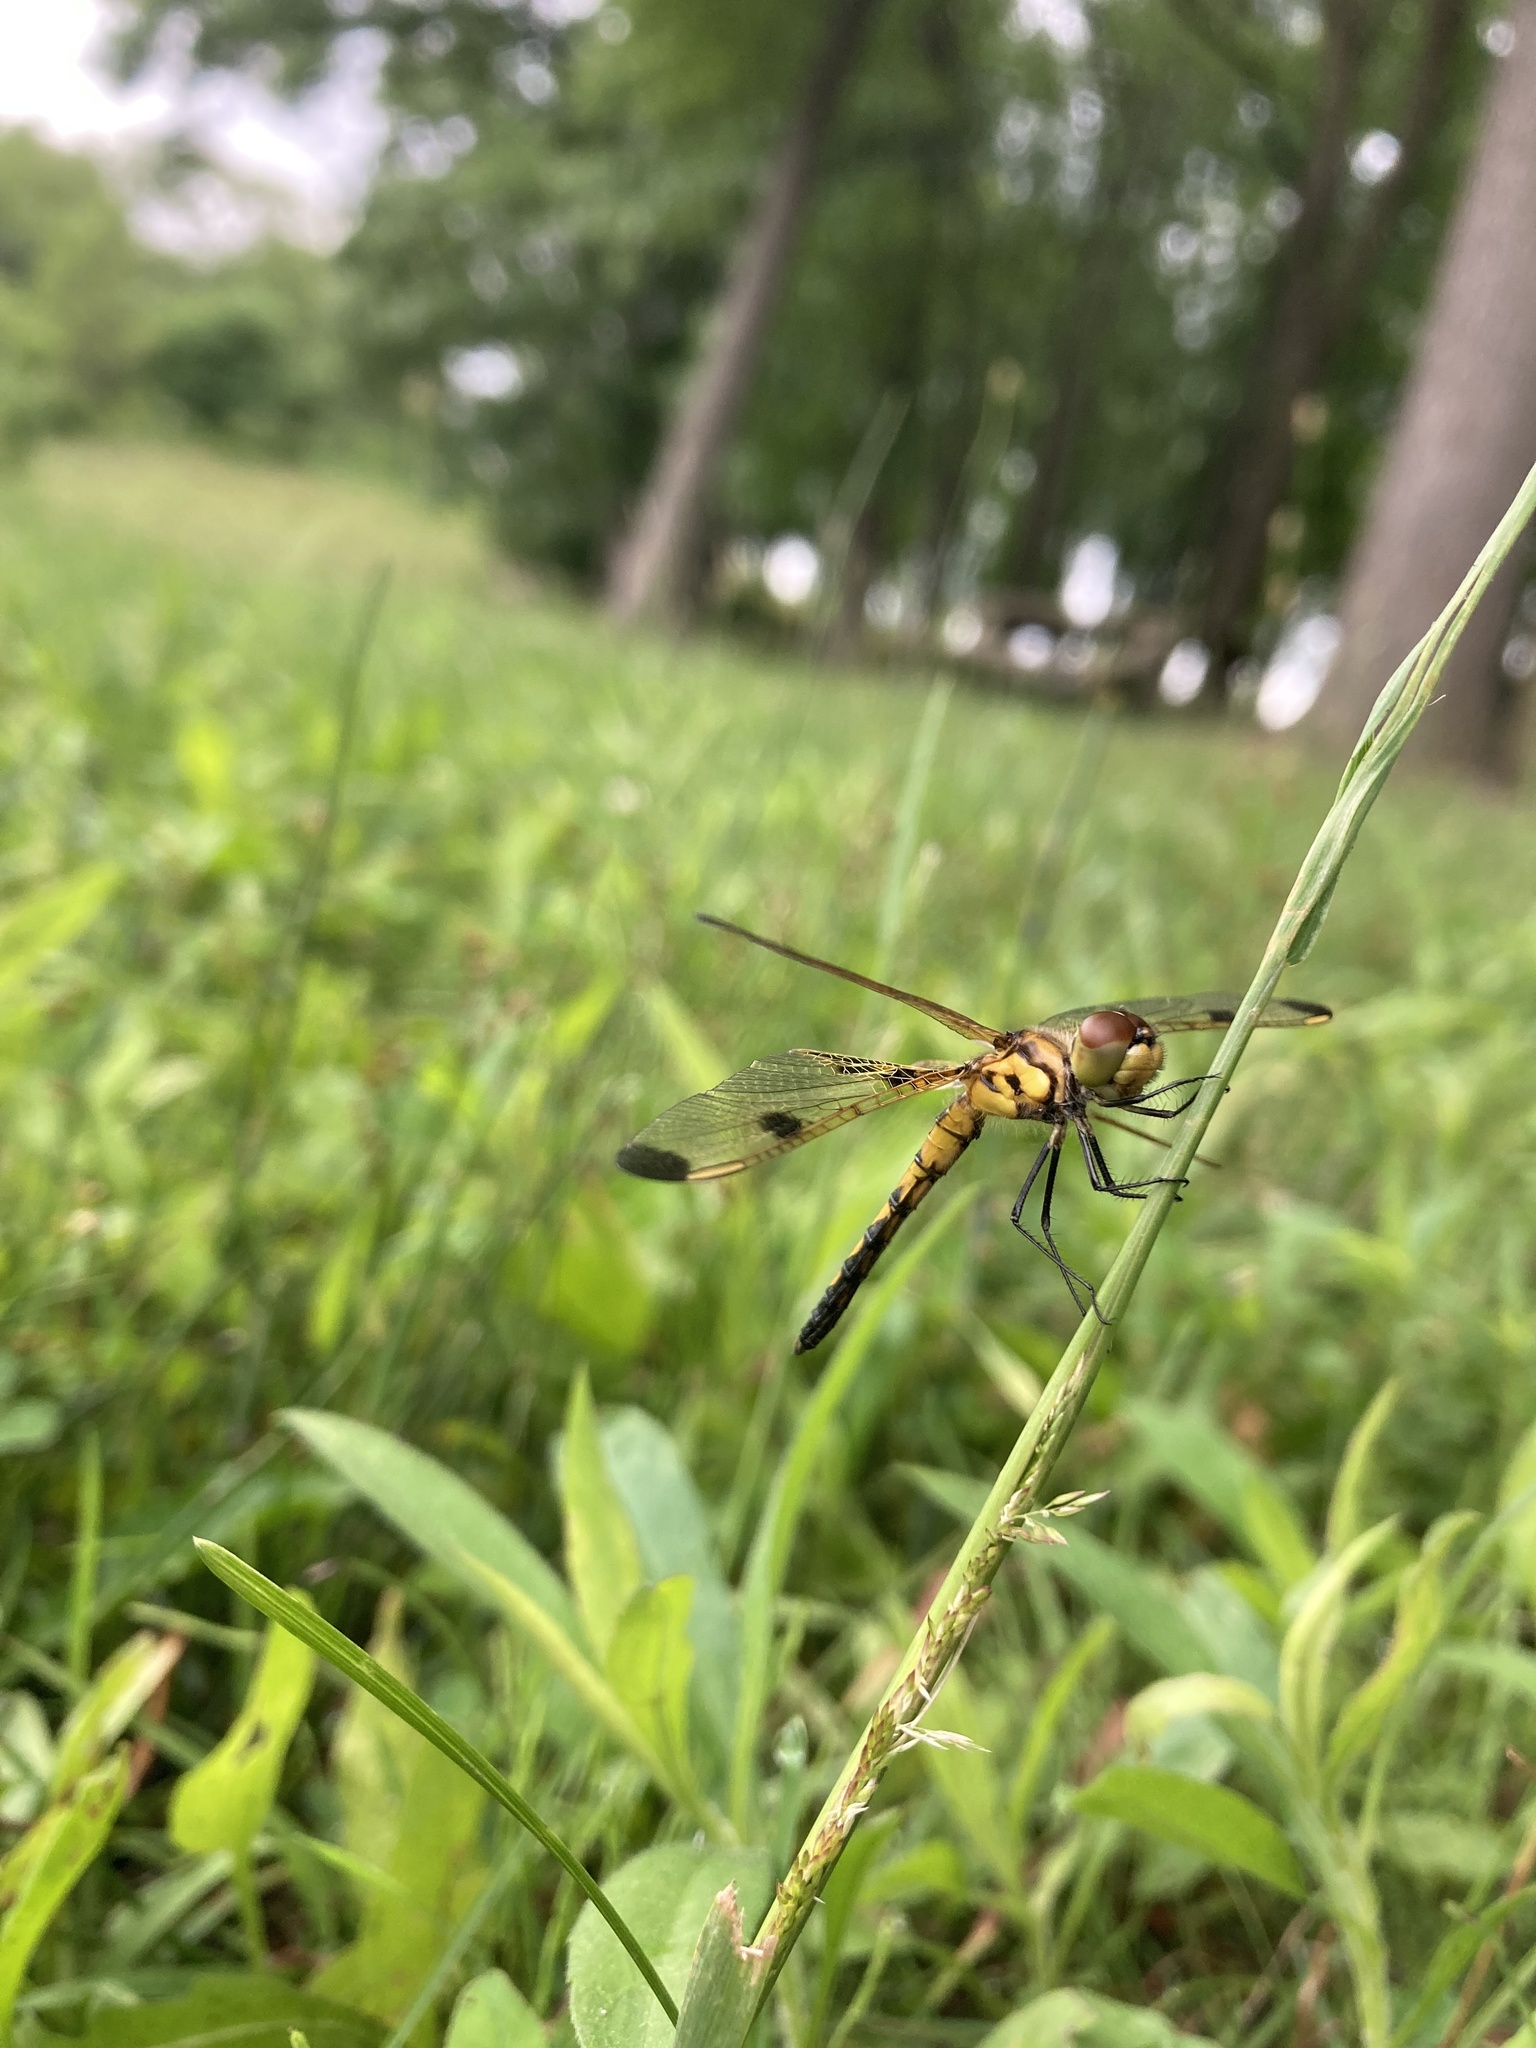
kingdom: Animalia
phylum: Arthropoda
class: Insecta
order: Odonata
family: Libellulidae
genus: Celithemis
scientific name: Celithemis elisa
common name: Calico pennant
